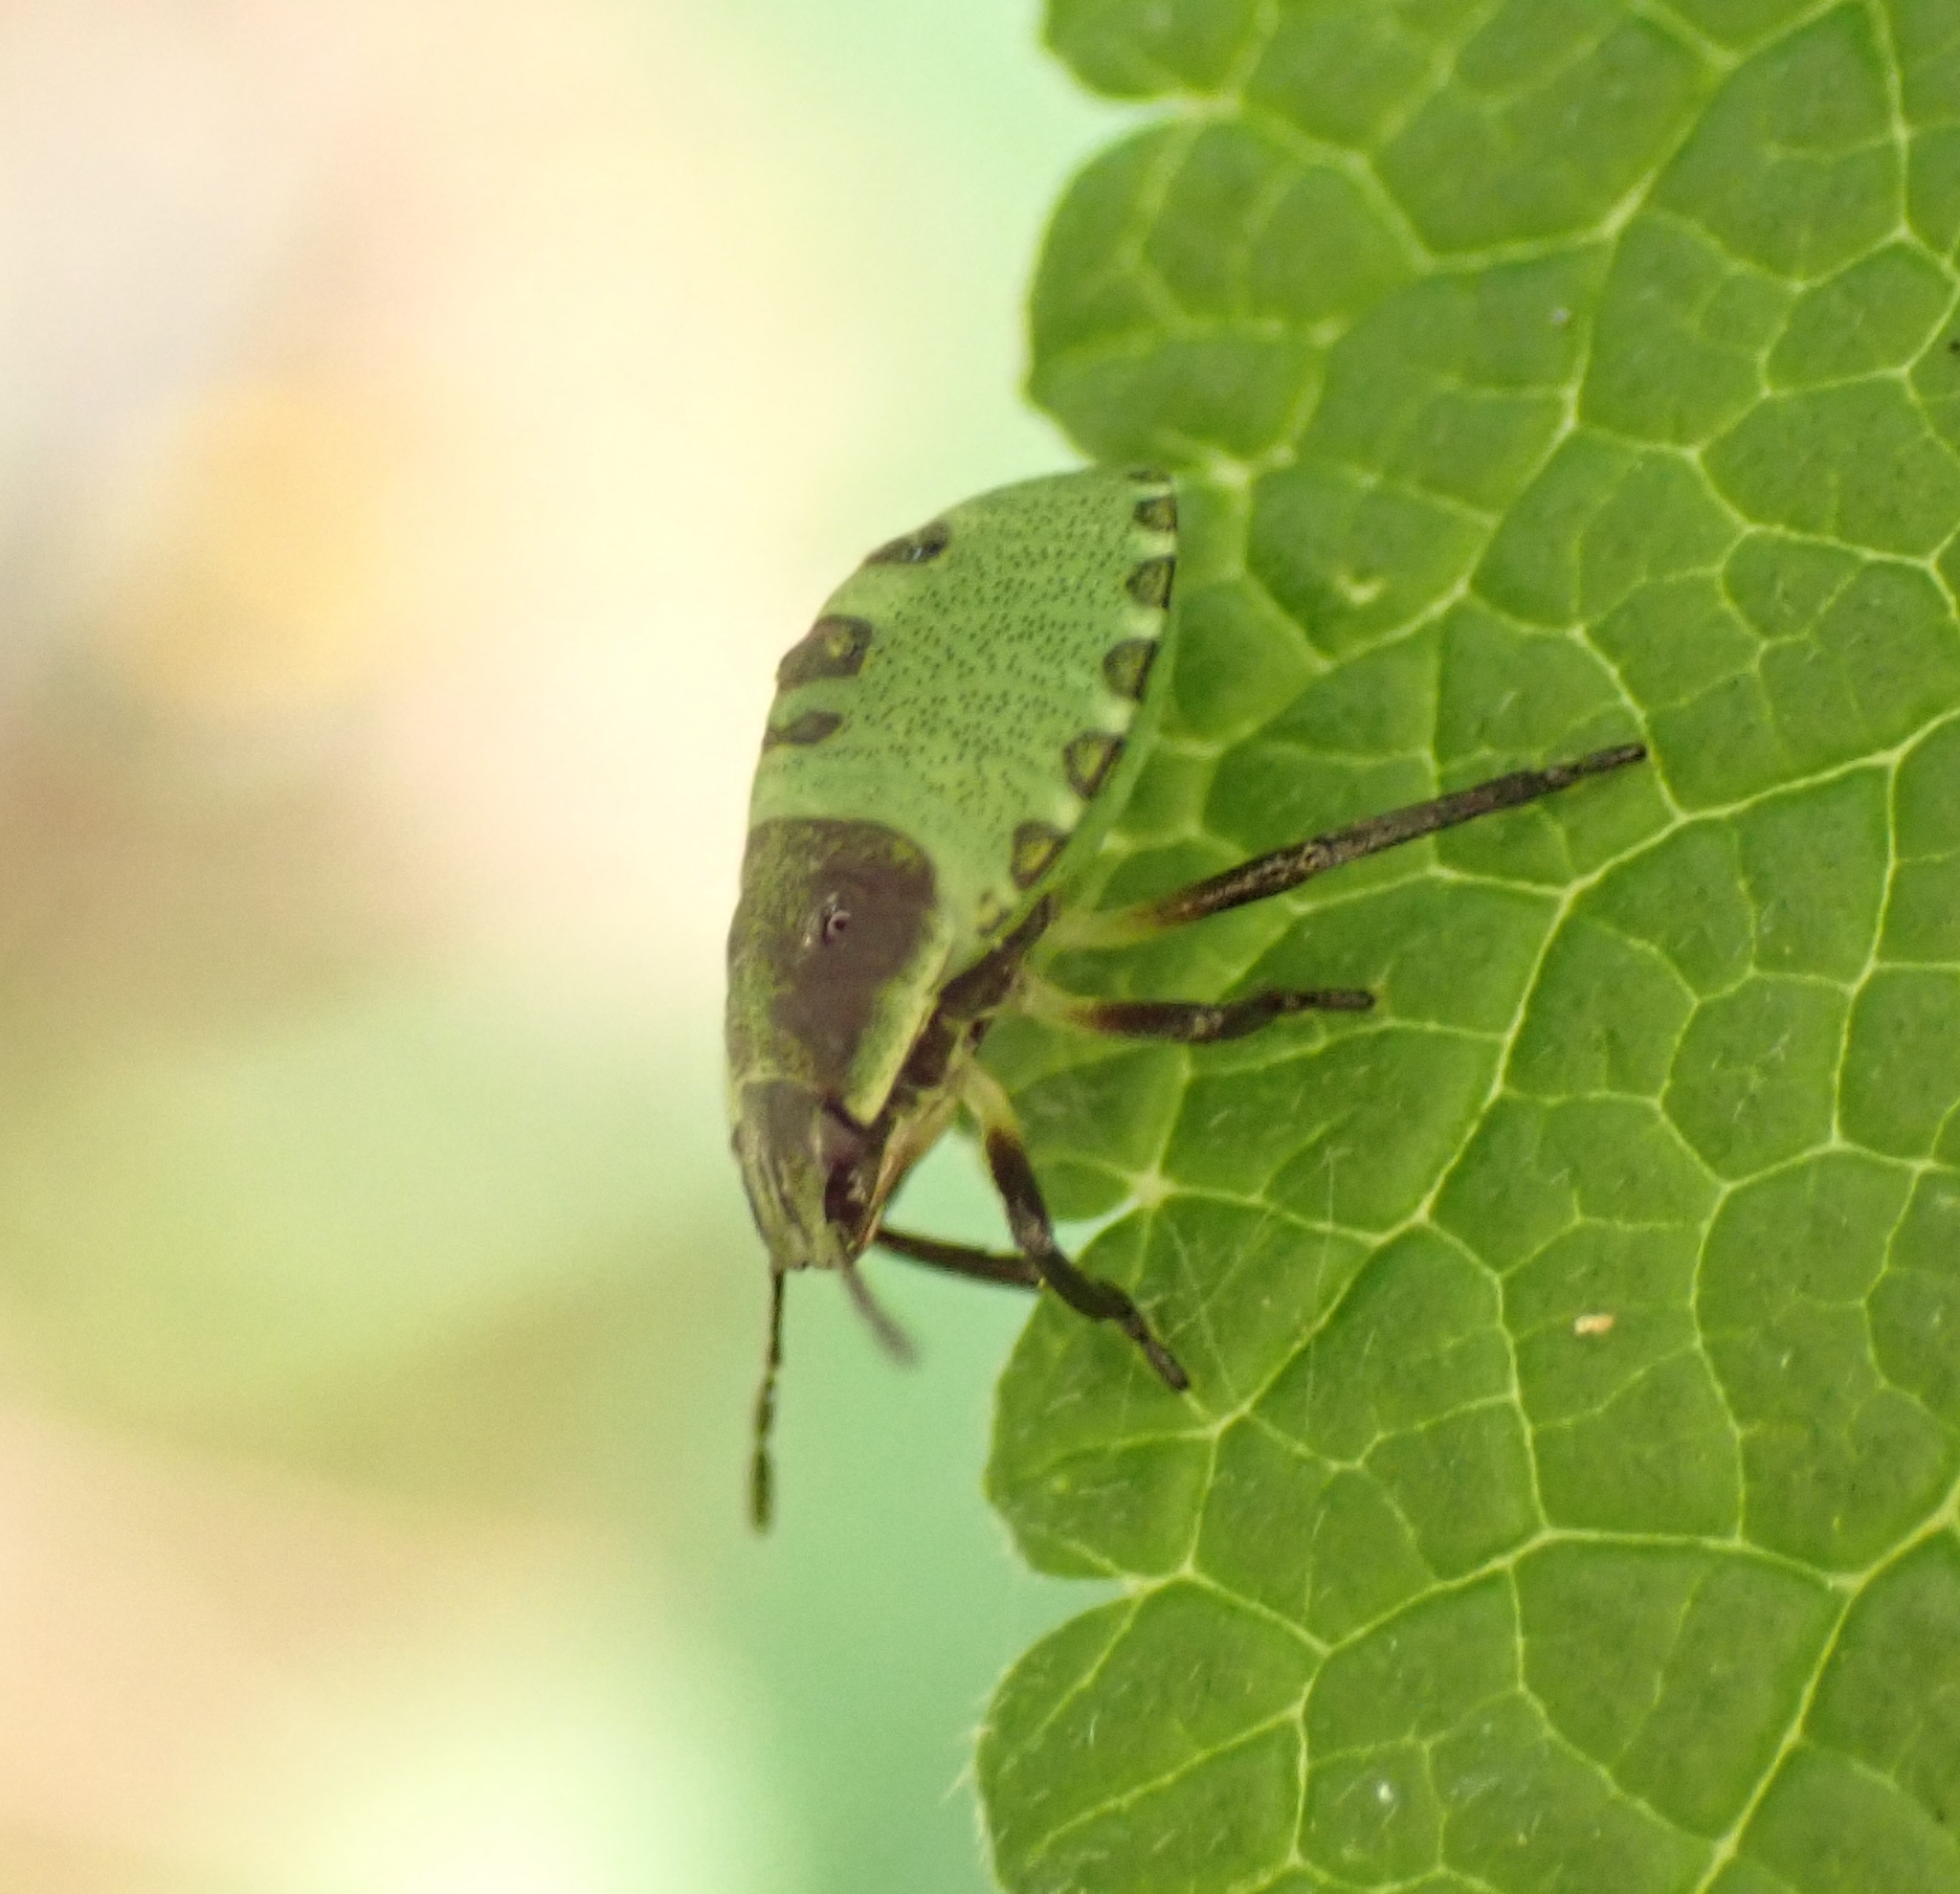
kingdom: Animalia
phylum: Arthropoda
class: Insecta
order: Hemiptera
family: Pentatomidae
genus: Palomena
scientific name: Palomena prasina
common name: Green shieldbug
